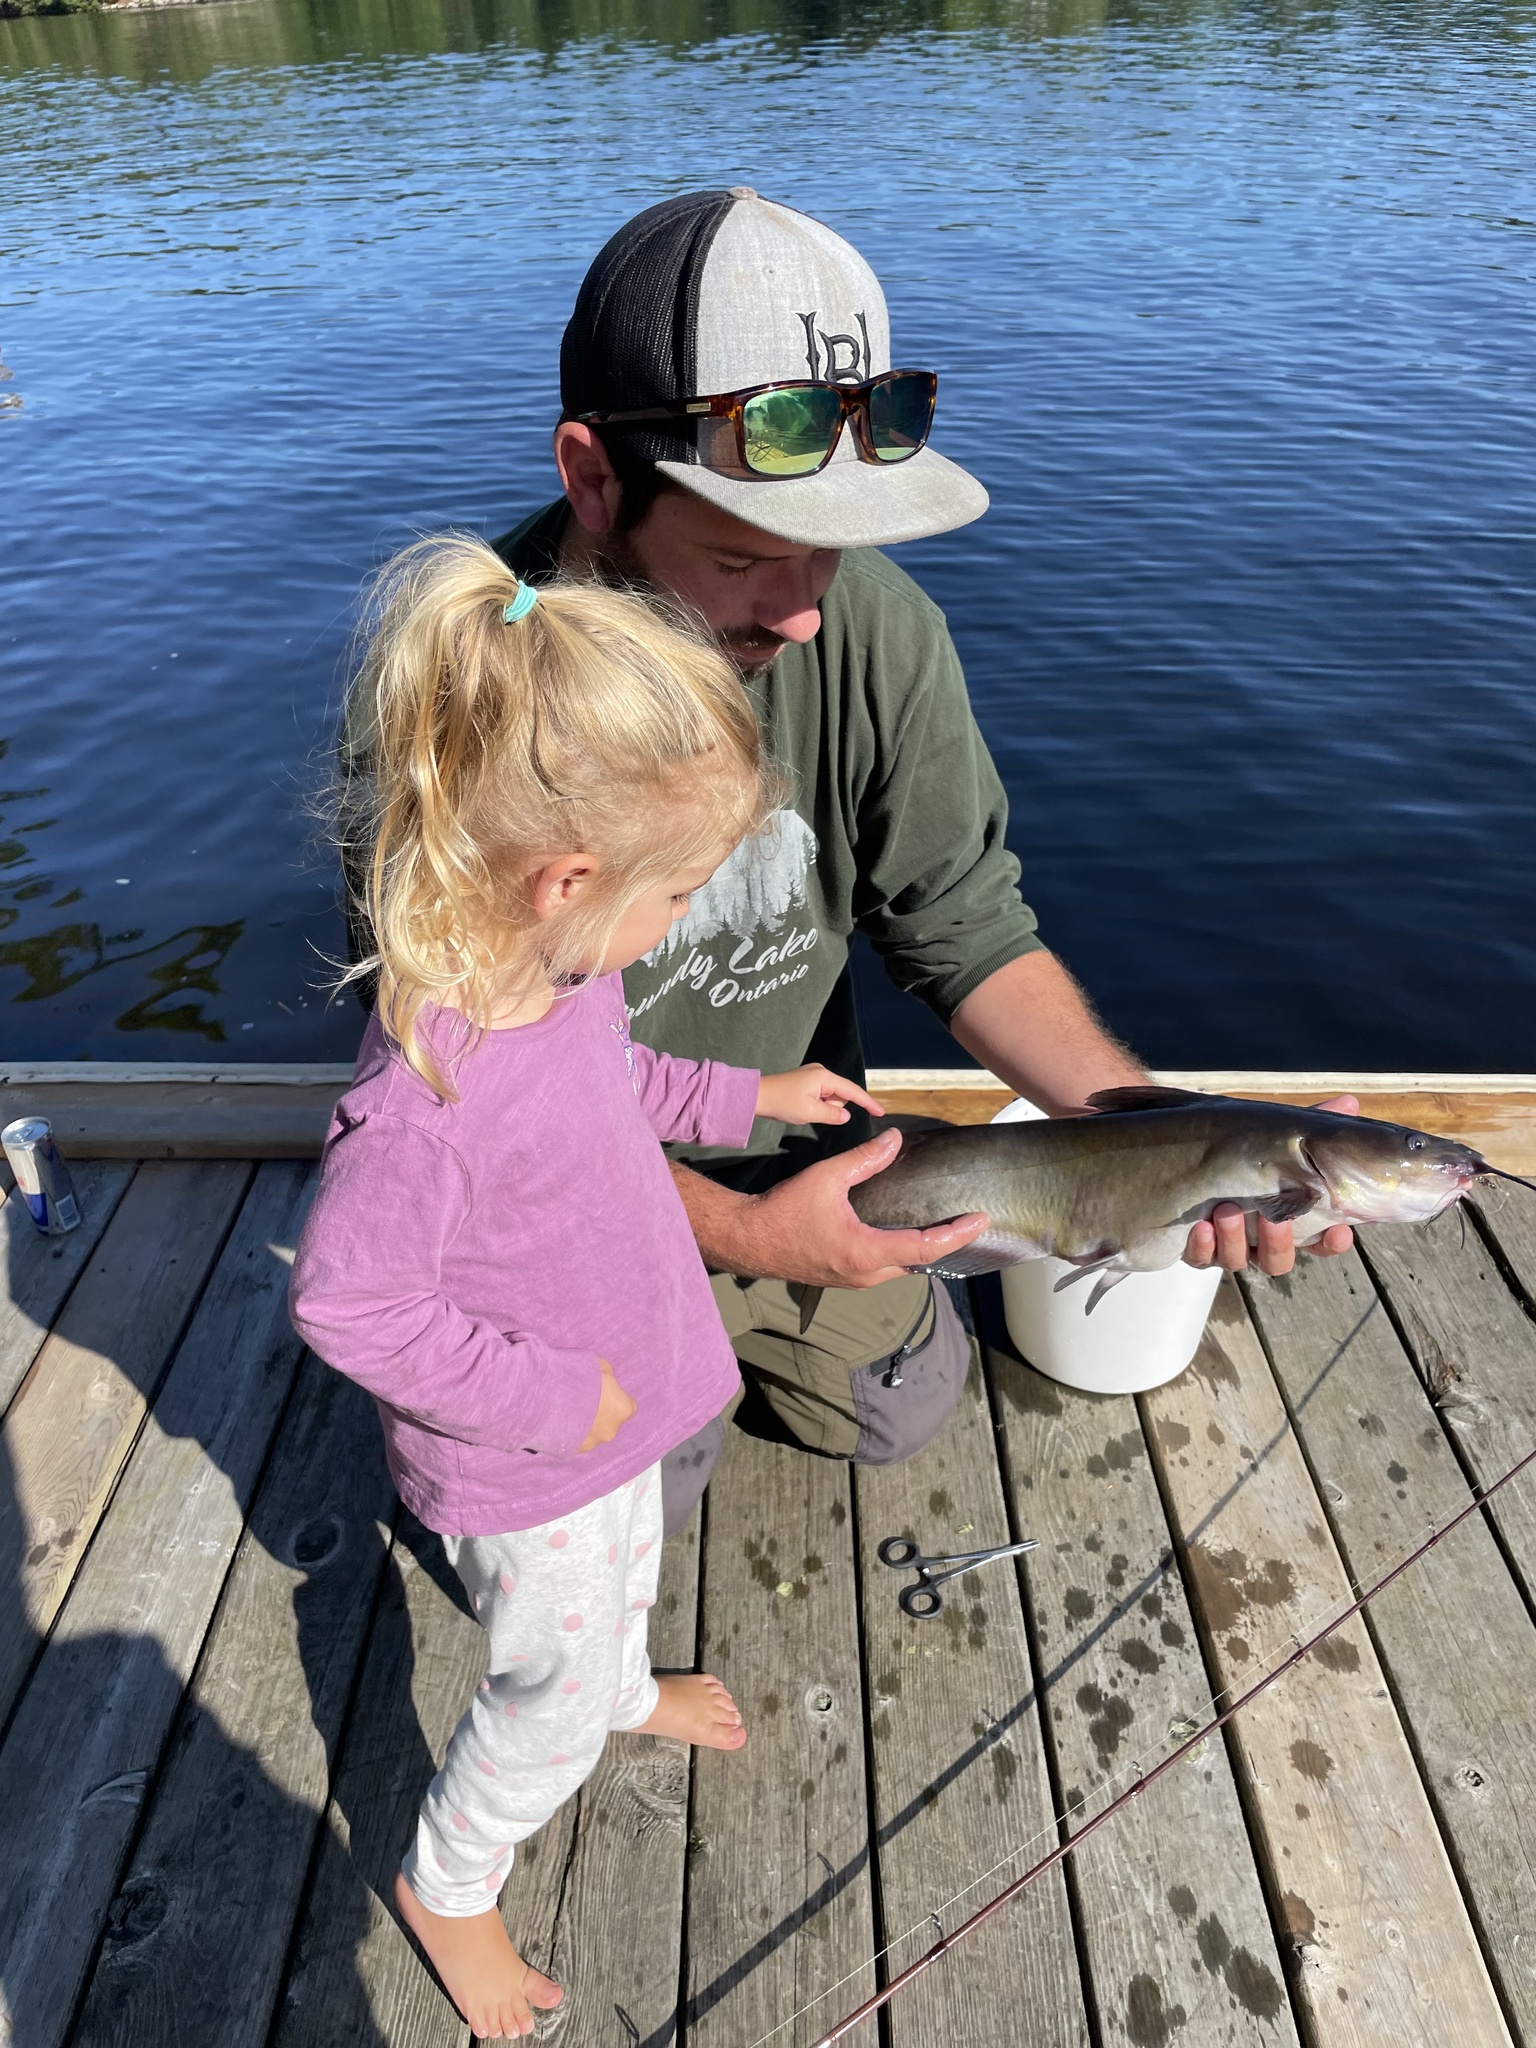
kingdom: Animalia
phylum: Chordata
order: Siluriformes
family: Ictaluridae
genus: Ictalurus
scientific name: Ictalurus punctatus
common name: Channel catfish
